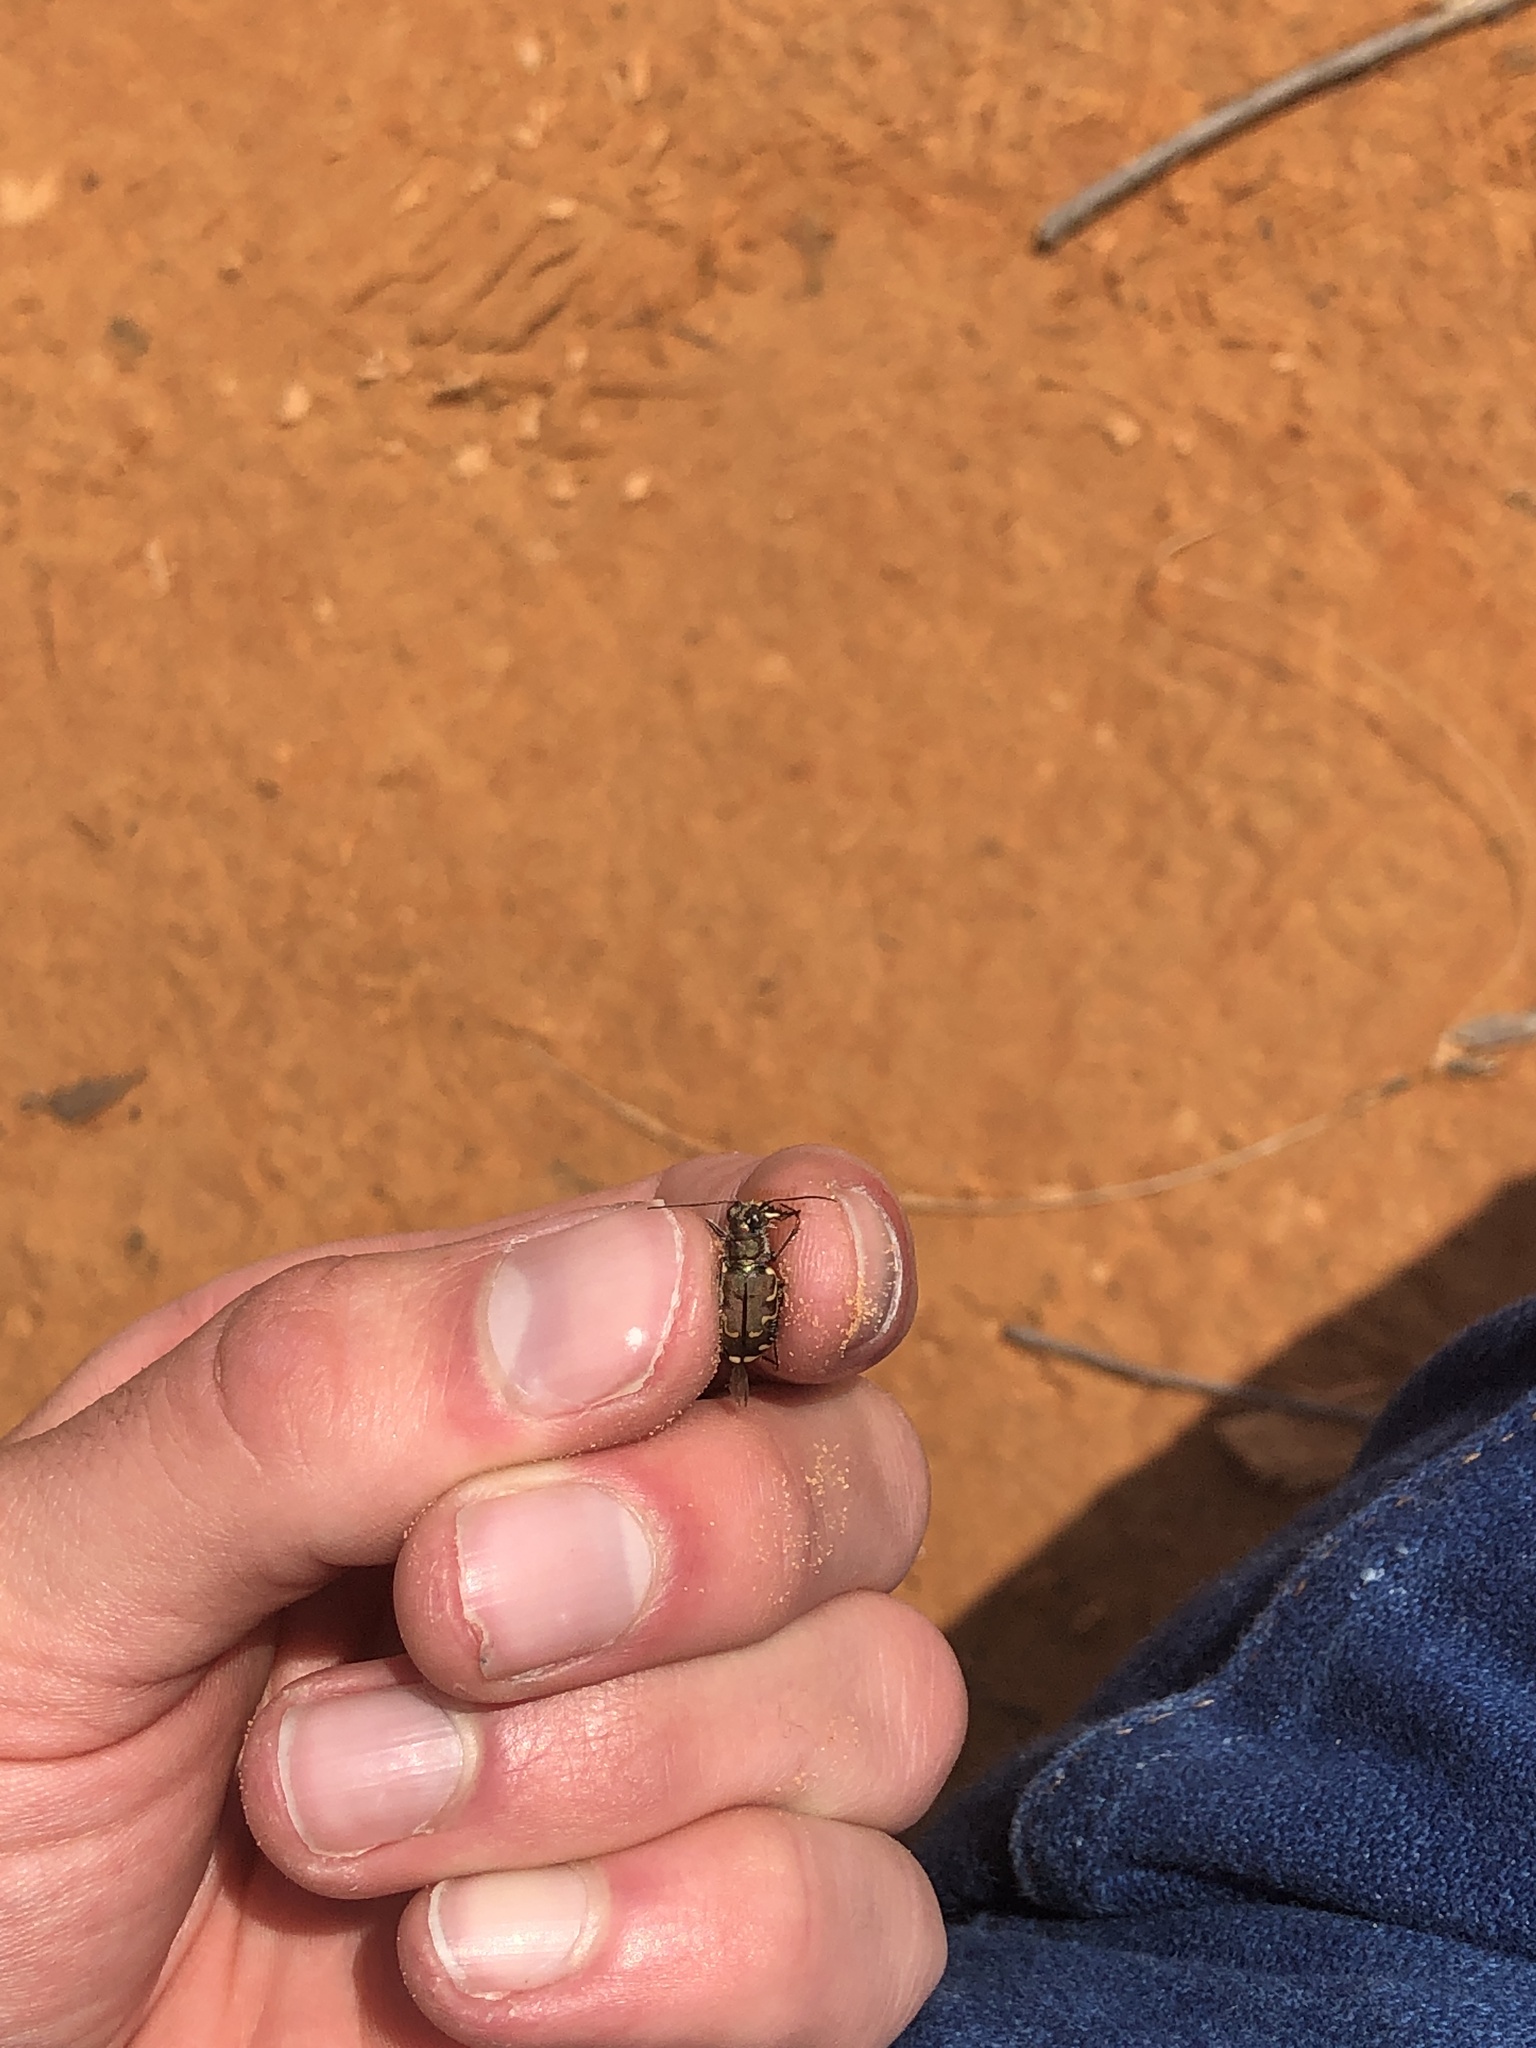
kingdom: Animalia
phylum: Arthropoda
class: Insecta
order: Coleoptera
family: Carabidae
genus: Cicindela
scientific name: Cicindela repanda
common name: Bronzed tiger beetle
